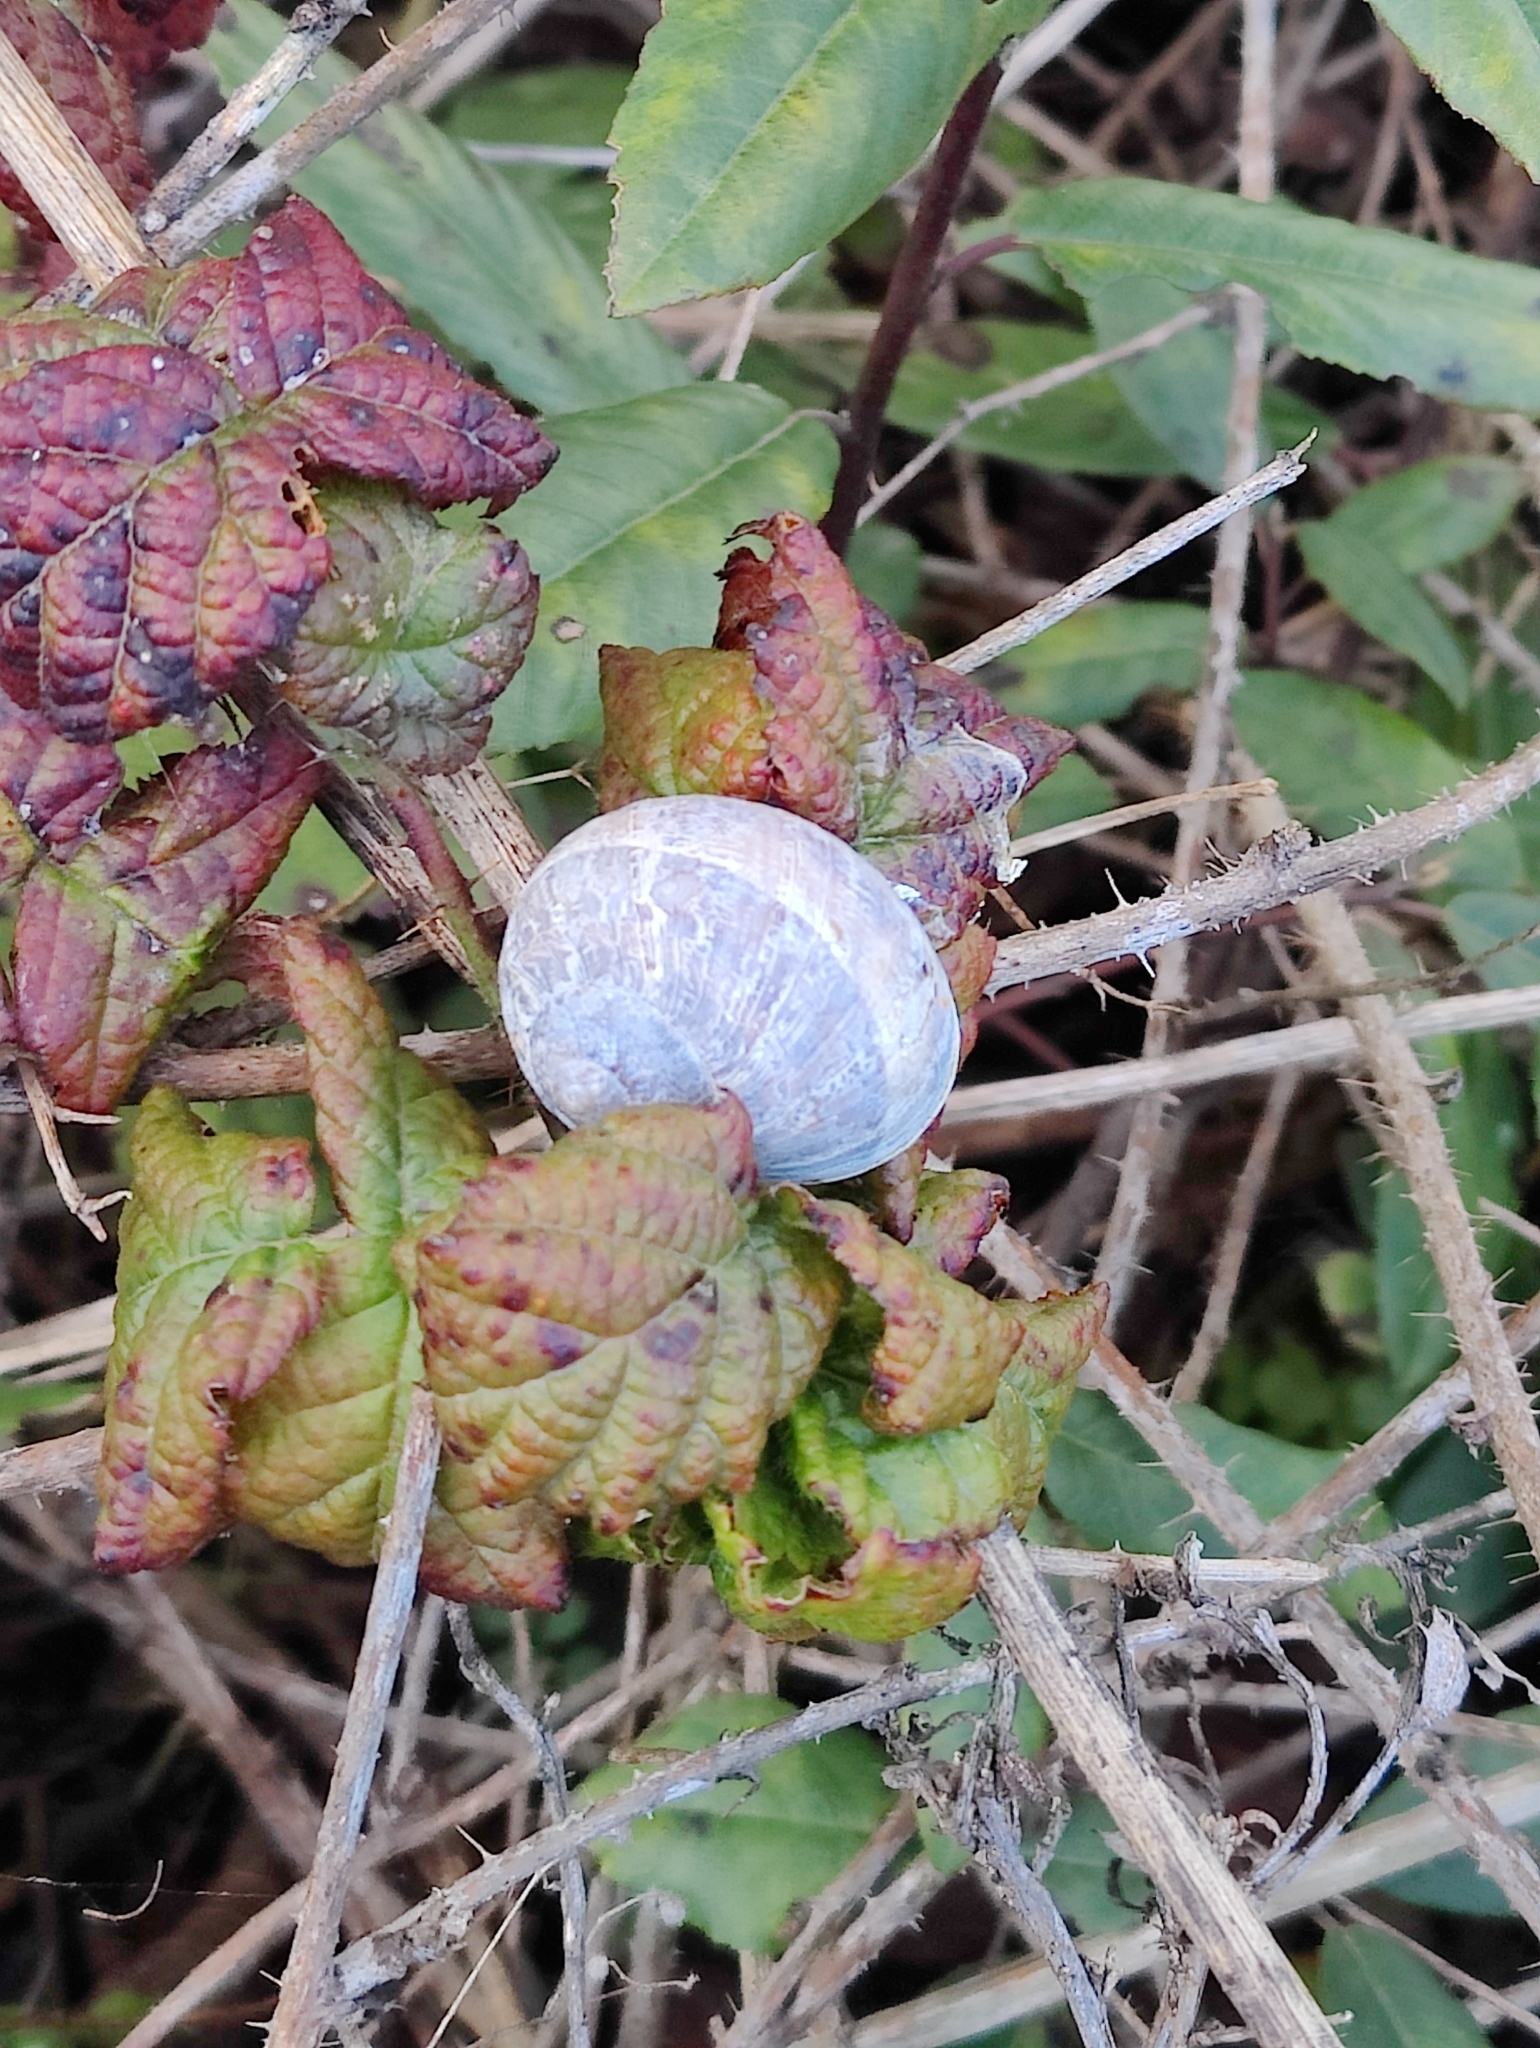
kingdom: Animalia
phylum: Mollusca
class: Gastropoda
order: Stylommatophora
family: Helicidae
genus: Cornu
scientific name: Cornu aspersum
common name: Brown garden snail
